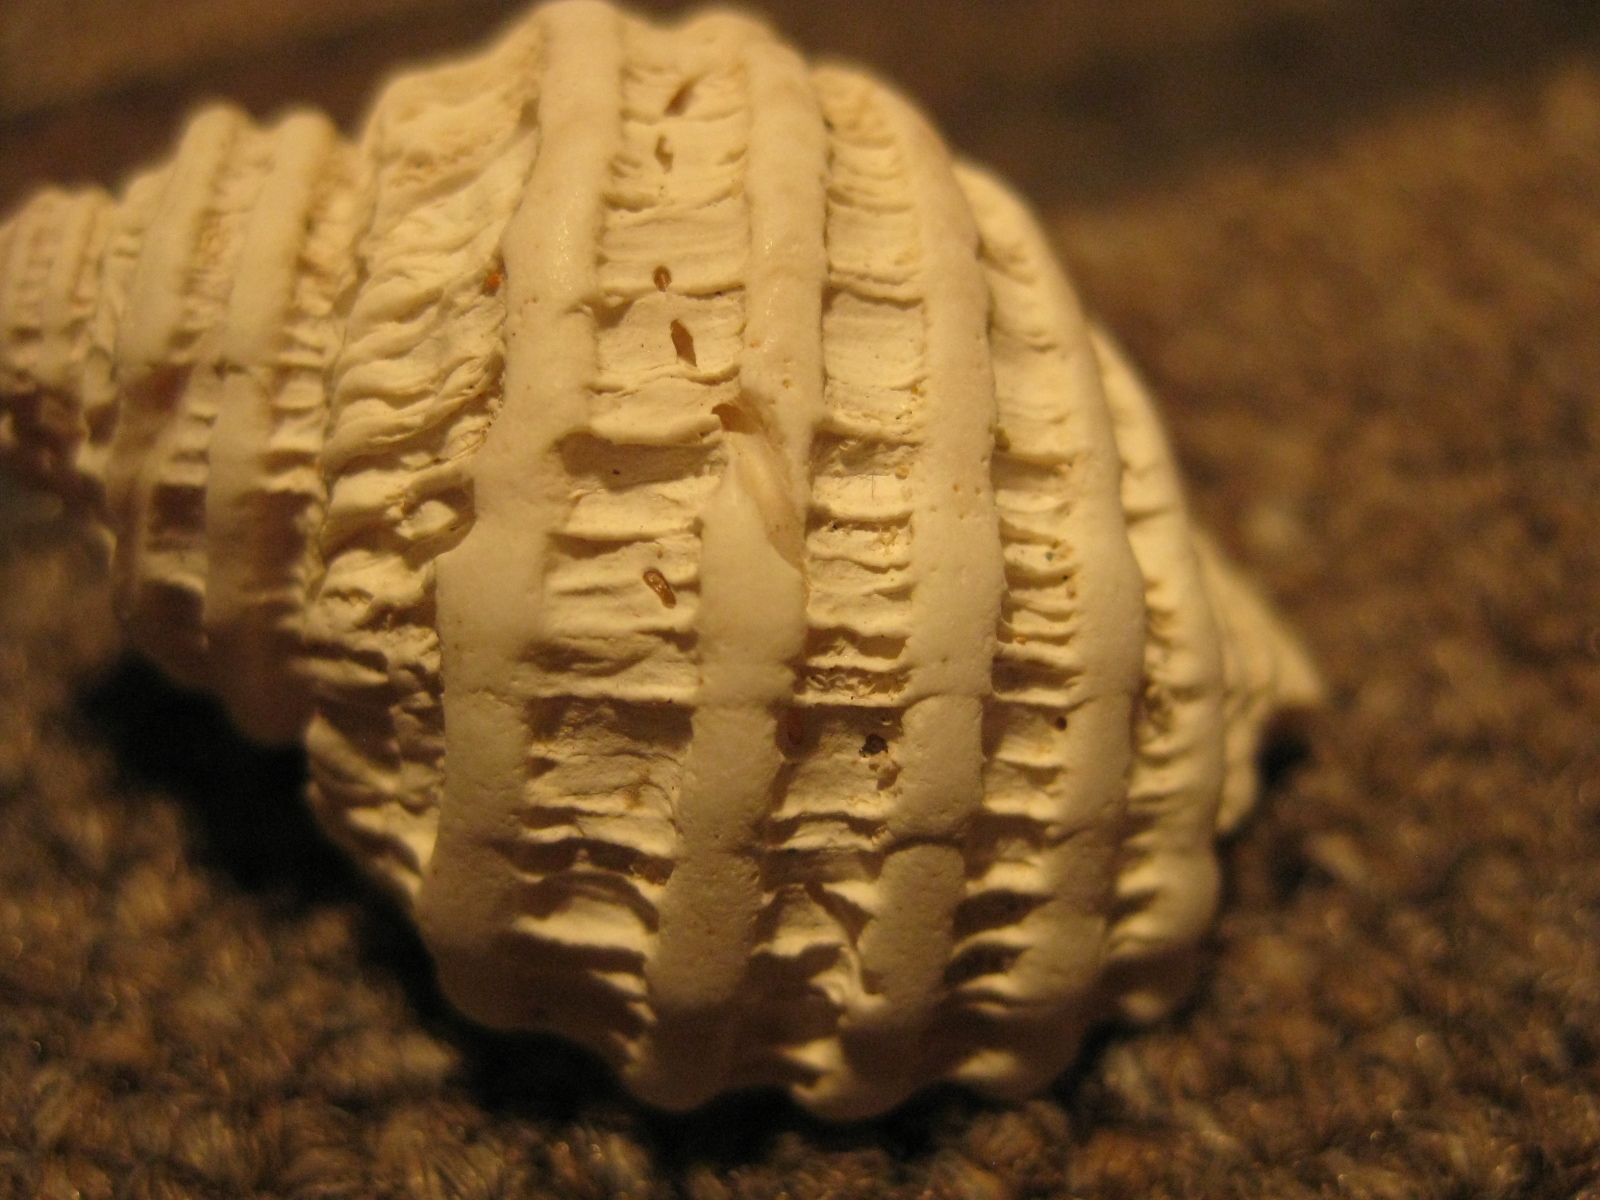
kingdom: Animalia
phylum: Mollusca
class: Gastropoda
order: Neogastropoda
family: Muricidae
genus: Haustrum
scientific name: Haustrum lacunosum
